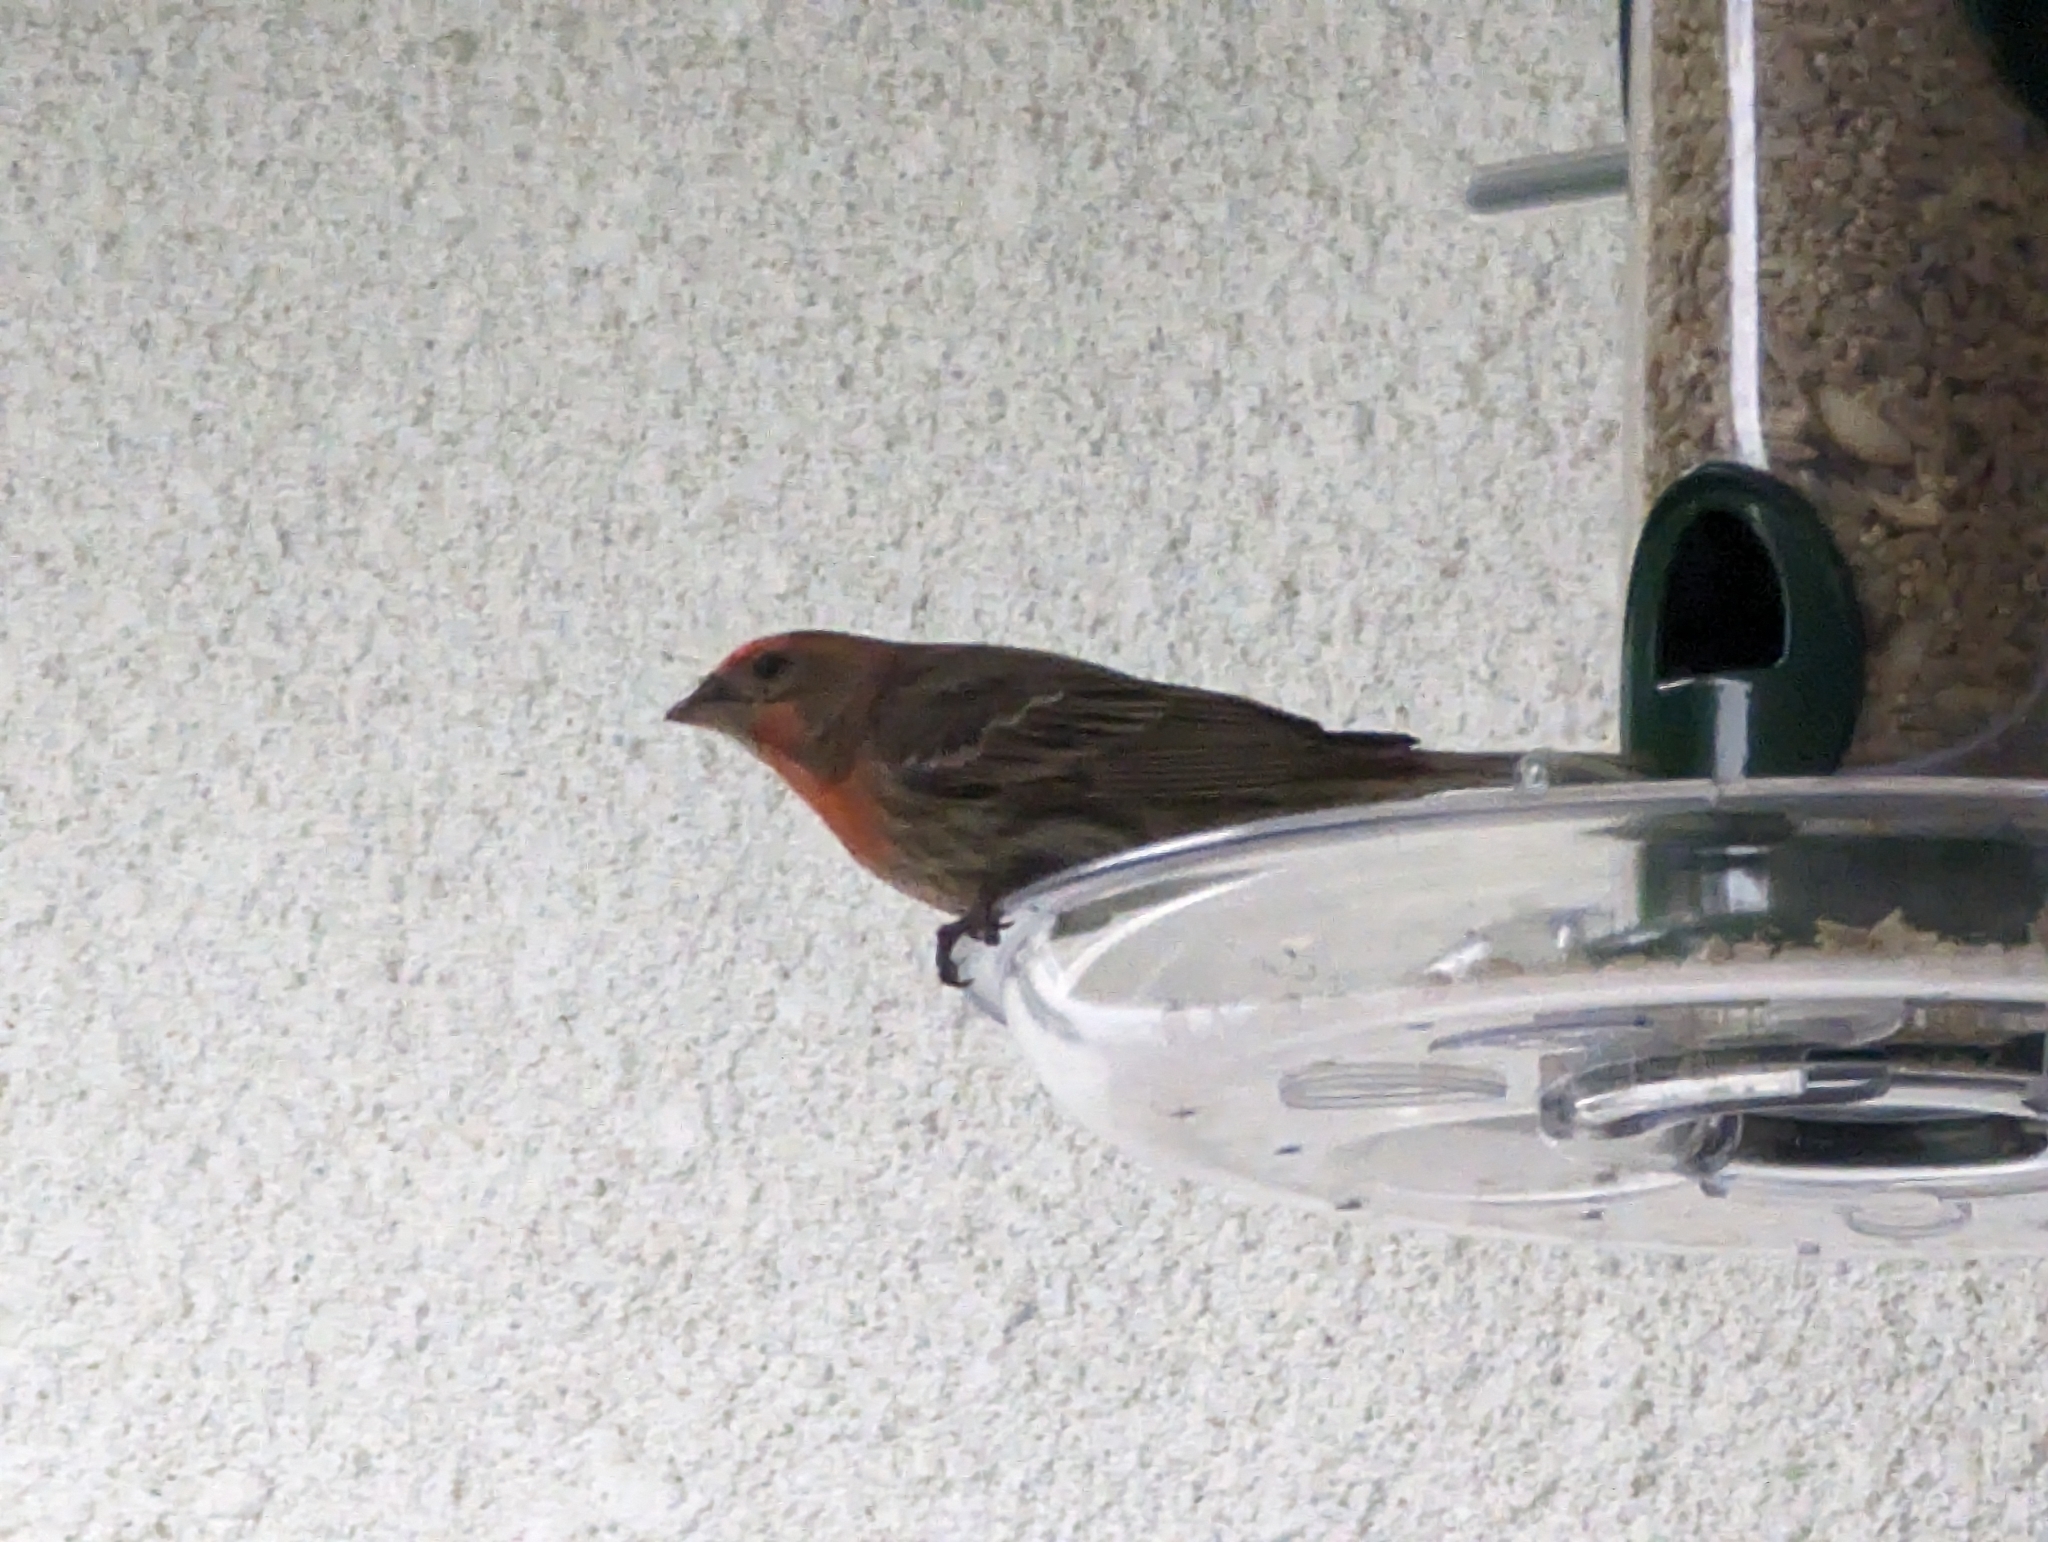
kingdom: Animalia
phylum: Chordata
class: Aves
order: Passeriformes
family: Fringillidae
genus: Haemorhous
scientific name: Haemorhous mexicanus
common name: House finch
